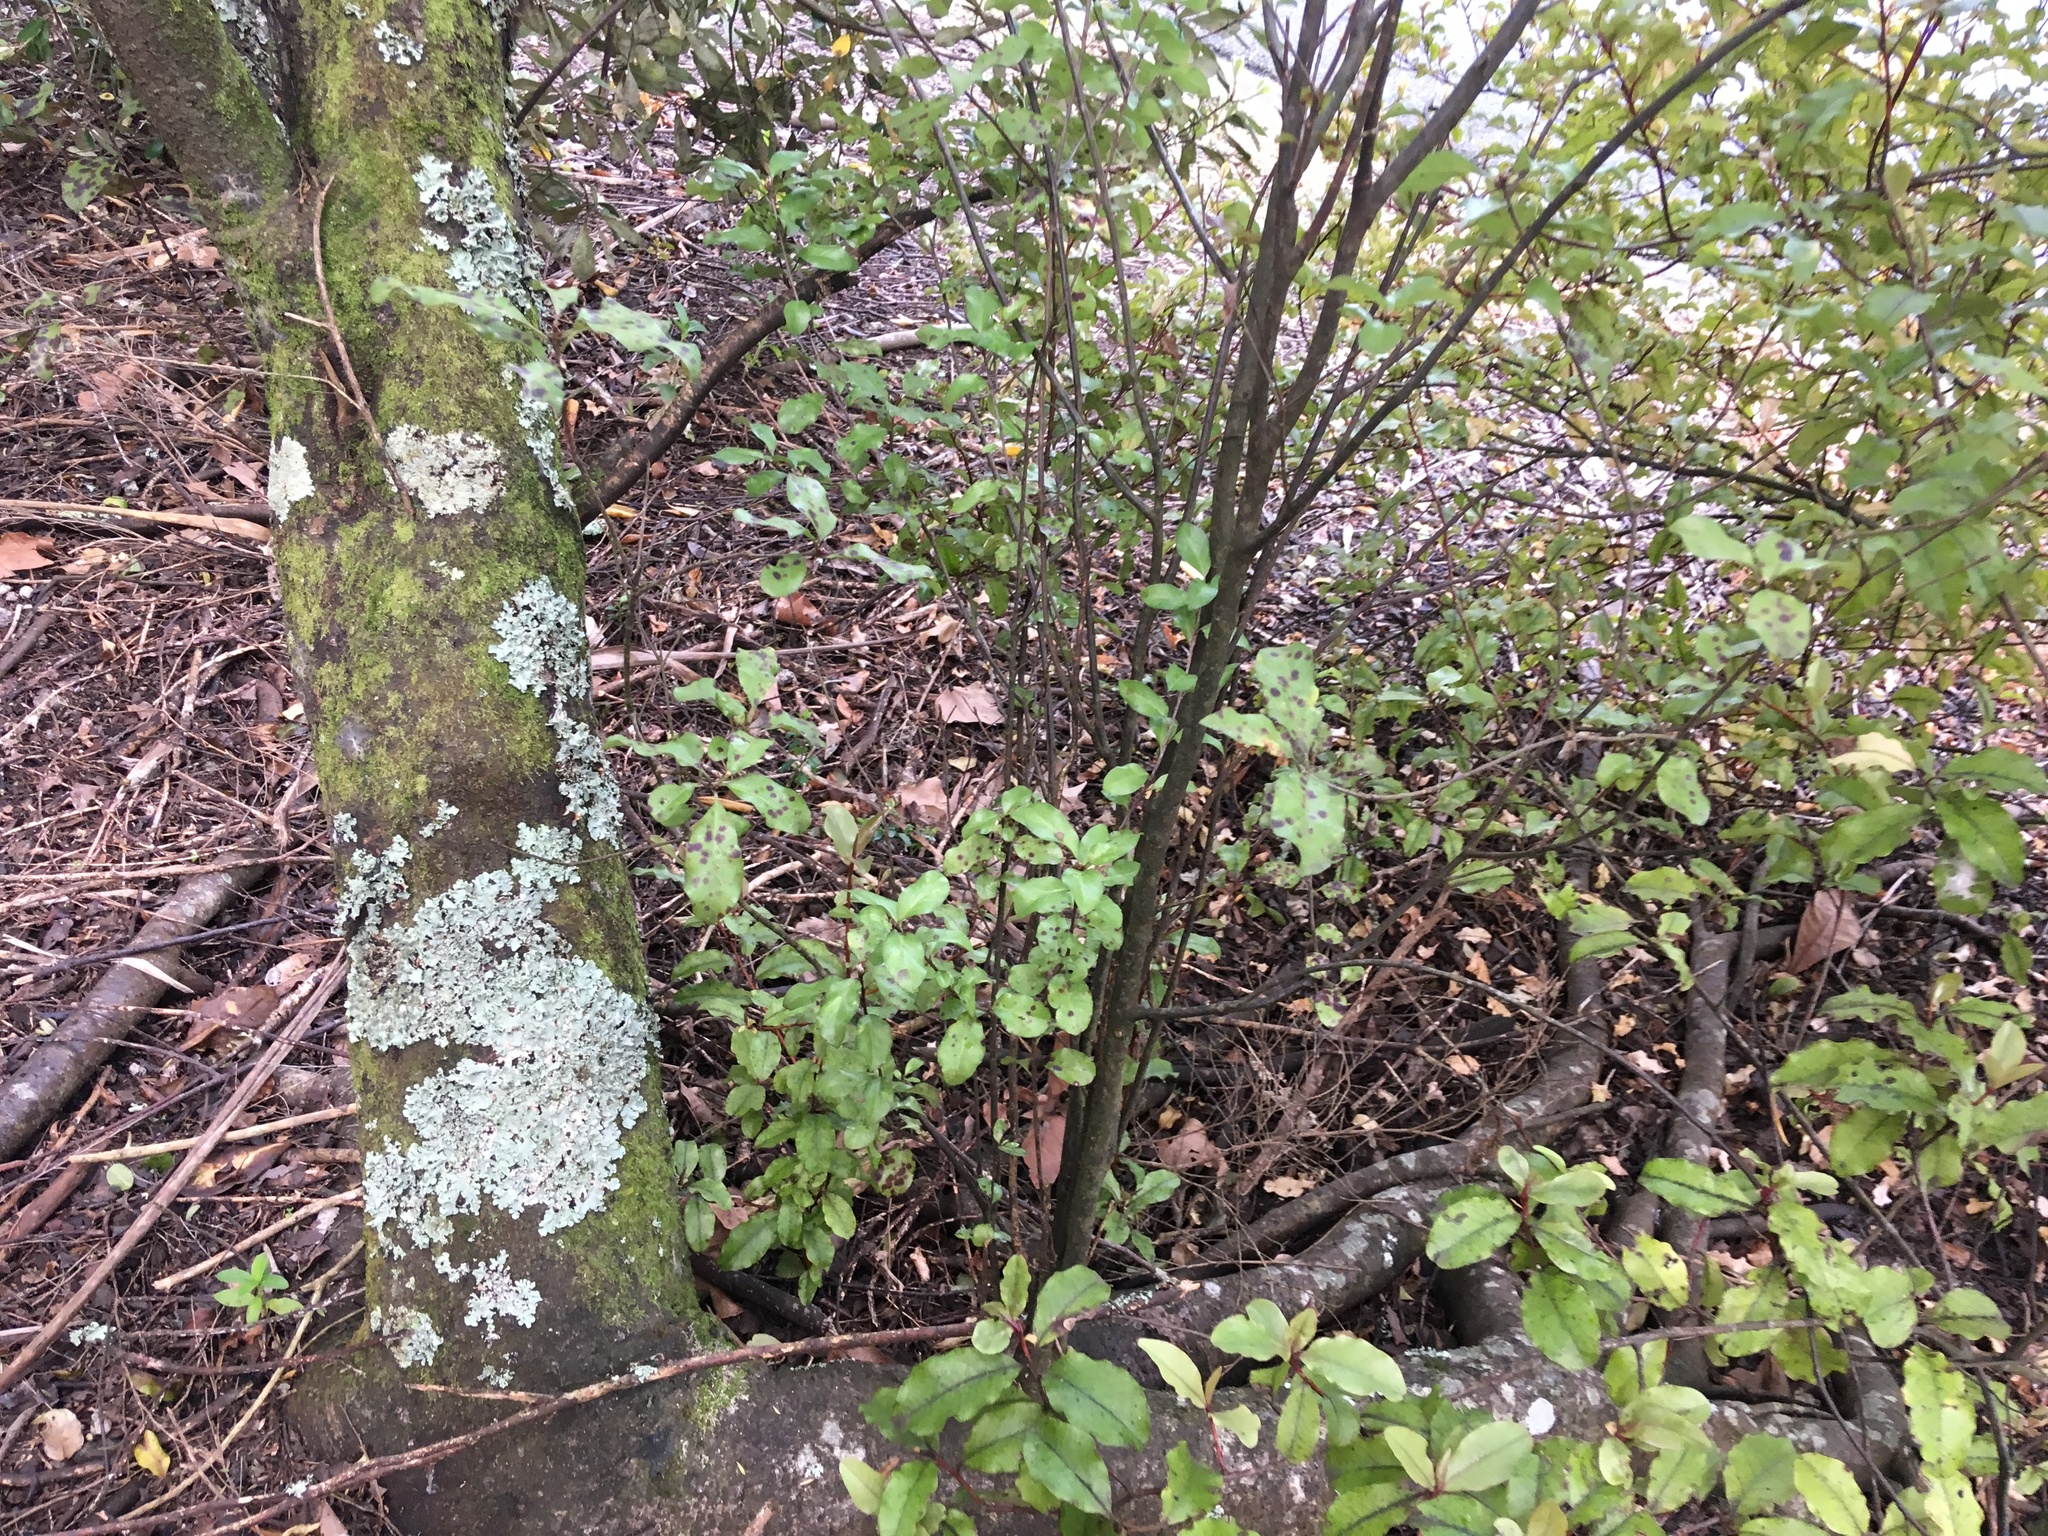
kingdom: Plantae
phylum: Tracheophyta
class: Magnoliopsida
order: Apiales
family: Pittosporaceae
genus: Pittosporum
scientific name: Pittosporum crassifolium
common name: Karo
